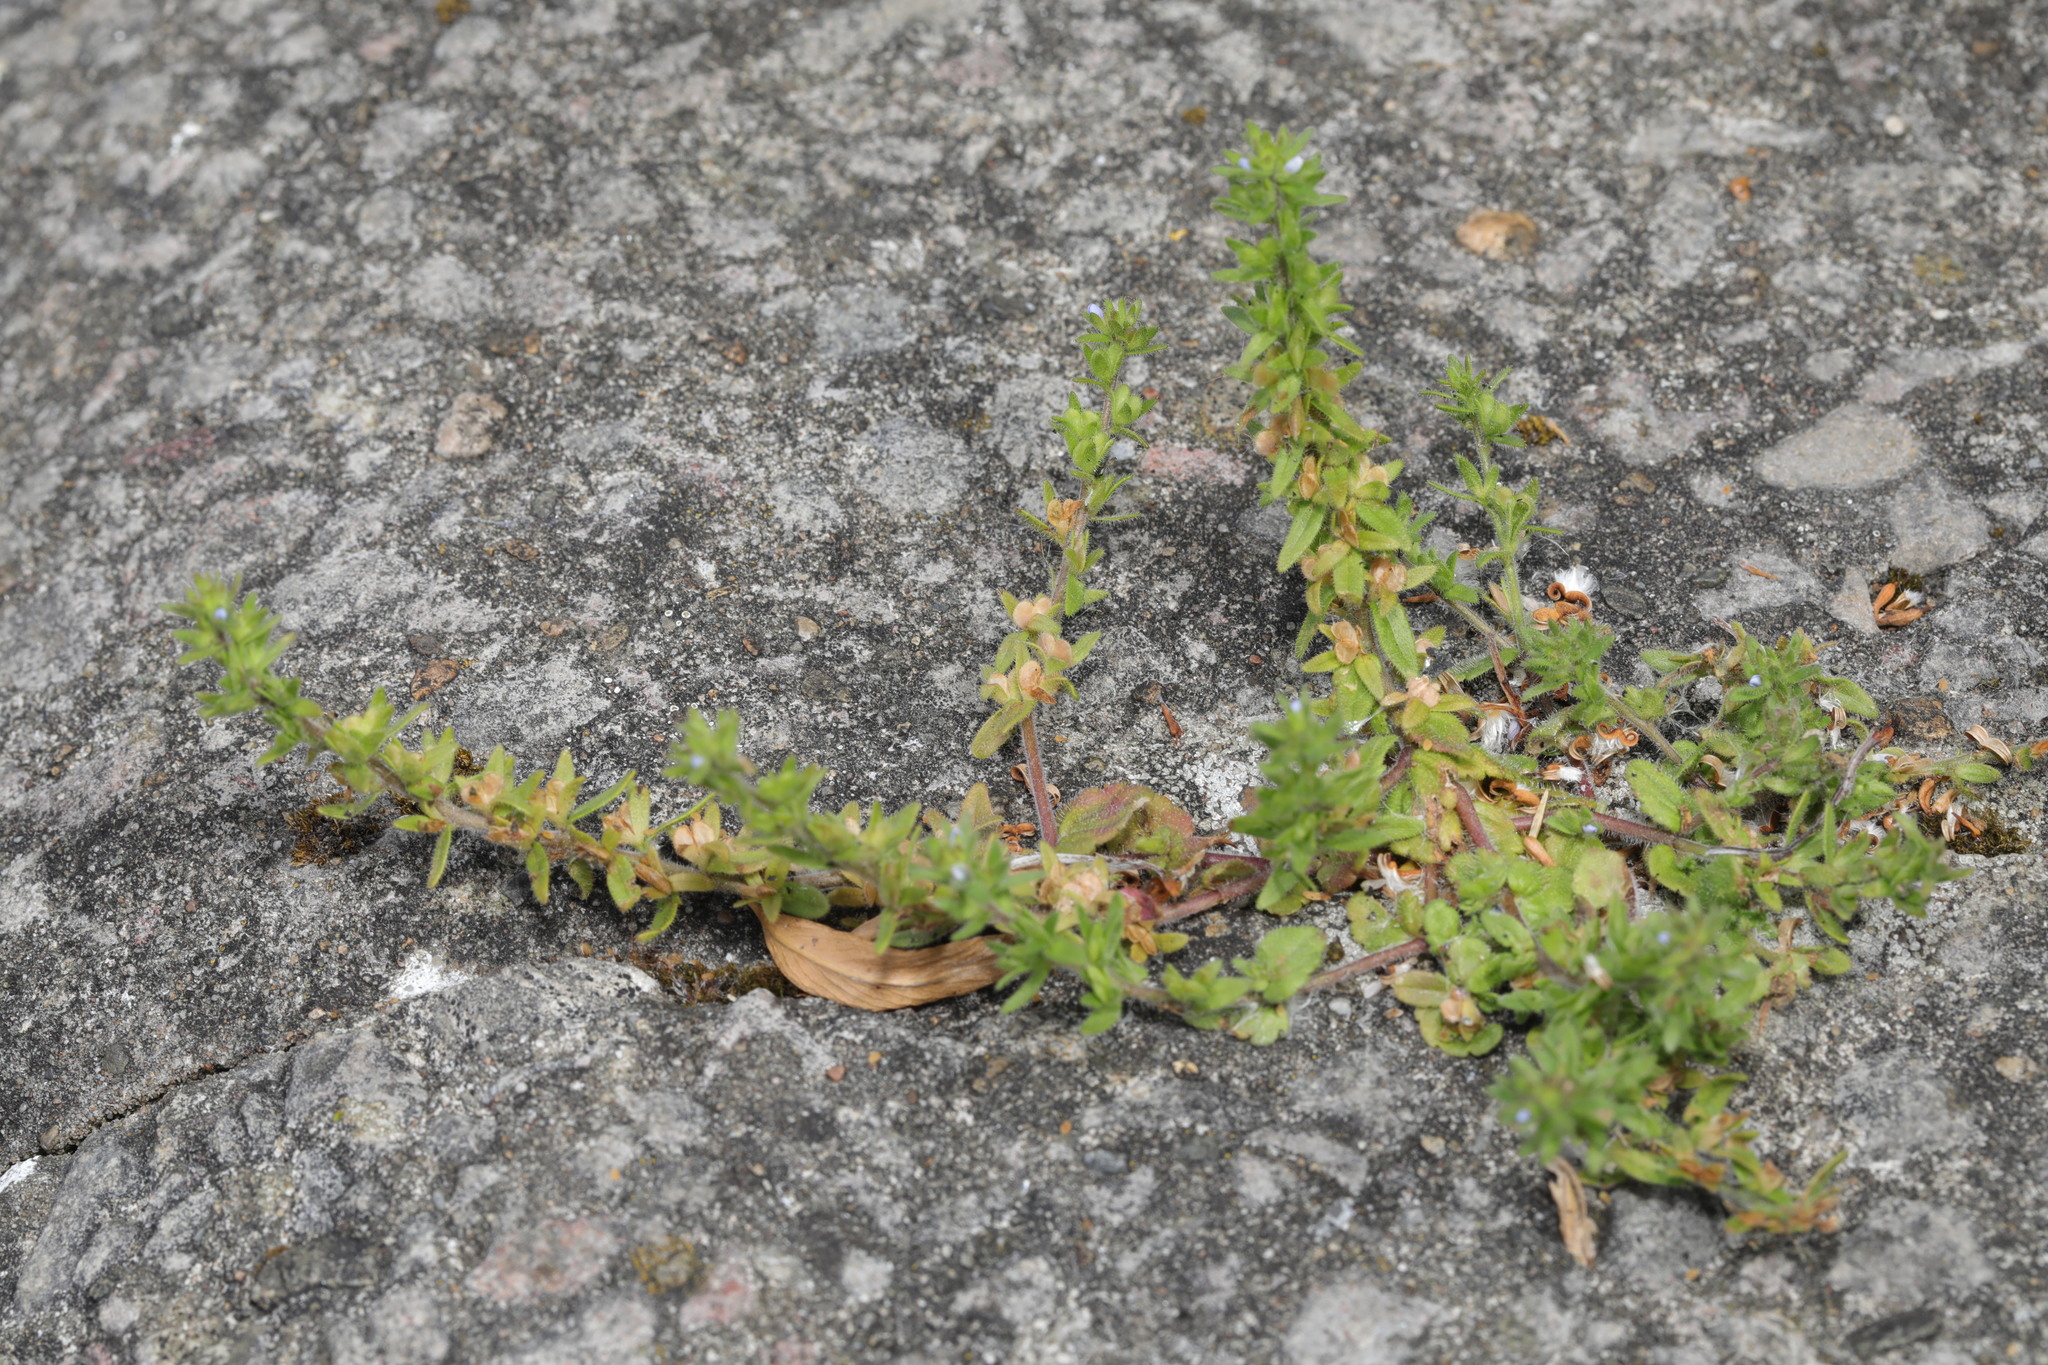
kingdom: Plantae
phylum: Tracheophyta
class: Magnoliopsida
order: Lamiales
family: Plantaginaceae
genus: Veronica
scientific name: Veronica arvensis
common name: Corn speedwell
